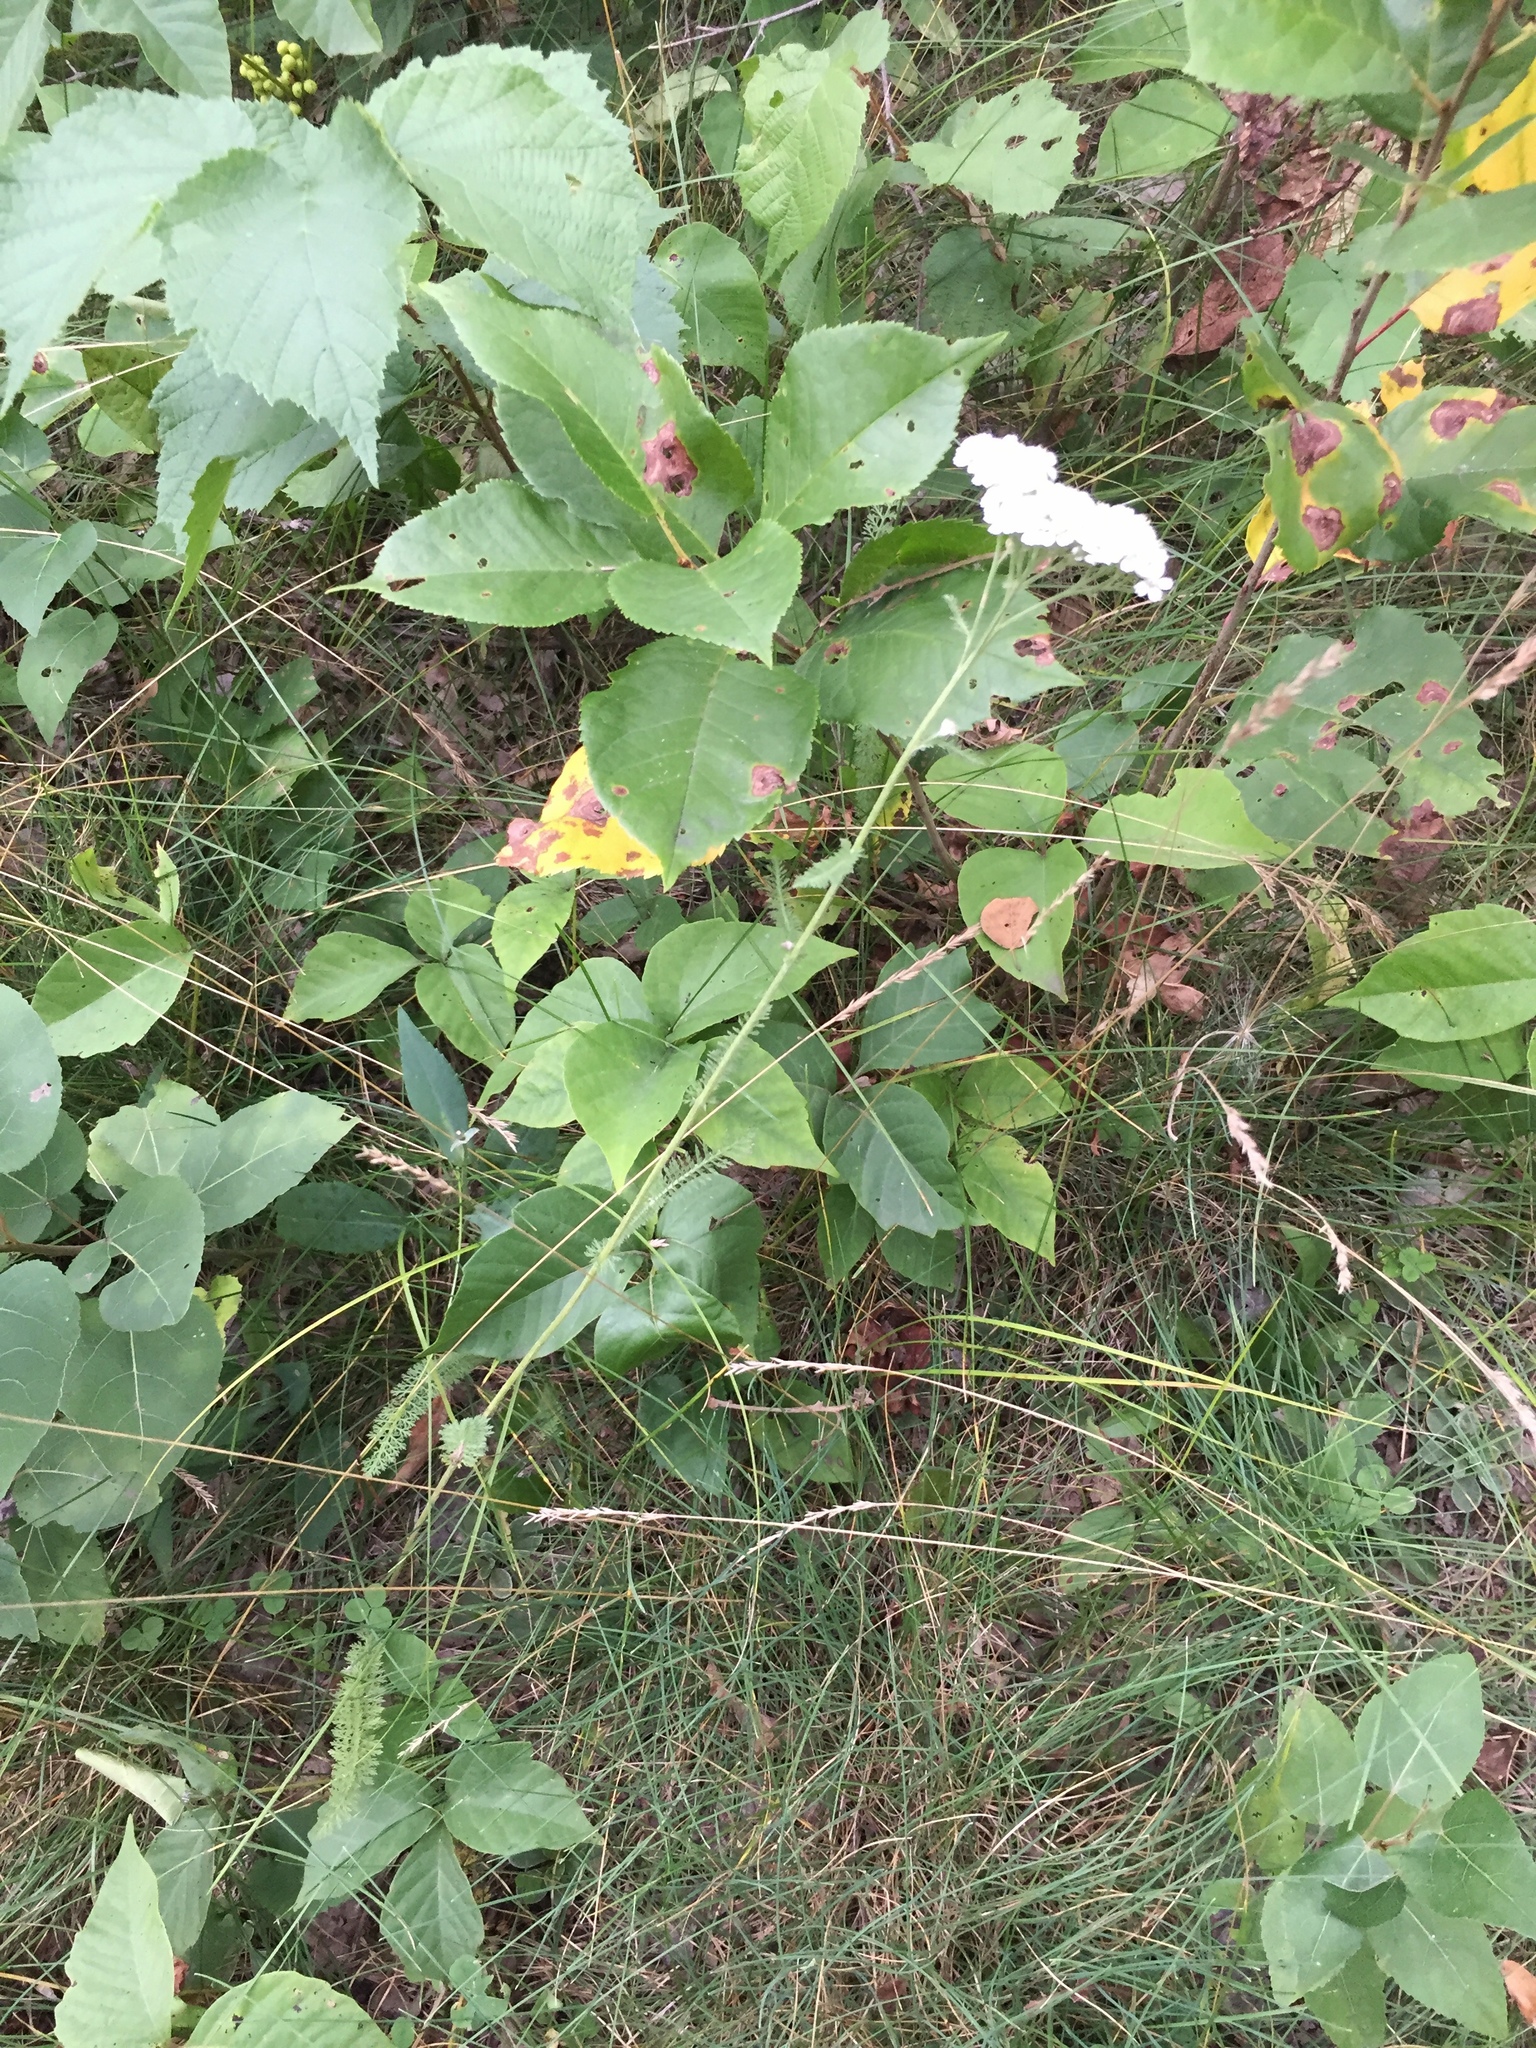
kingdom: Plantae
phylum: Tracheophyta
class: Magnoliopsida
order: Asterales
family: Asteraceae
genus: Achillea
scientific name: Achillea millefolium
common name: Yarrow
